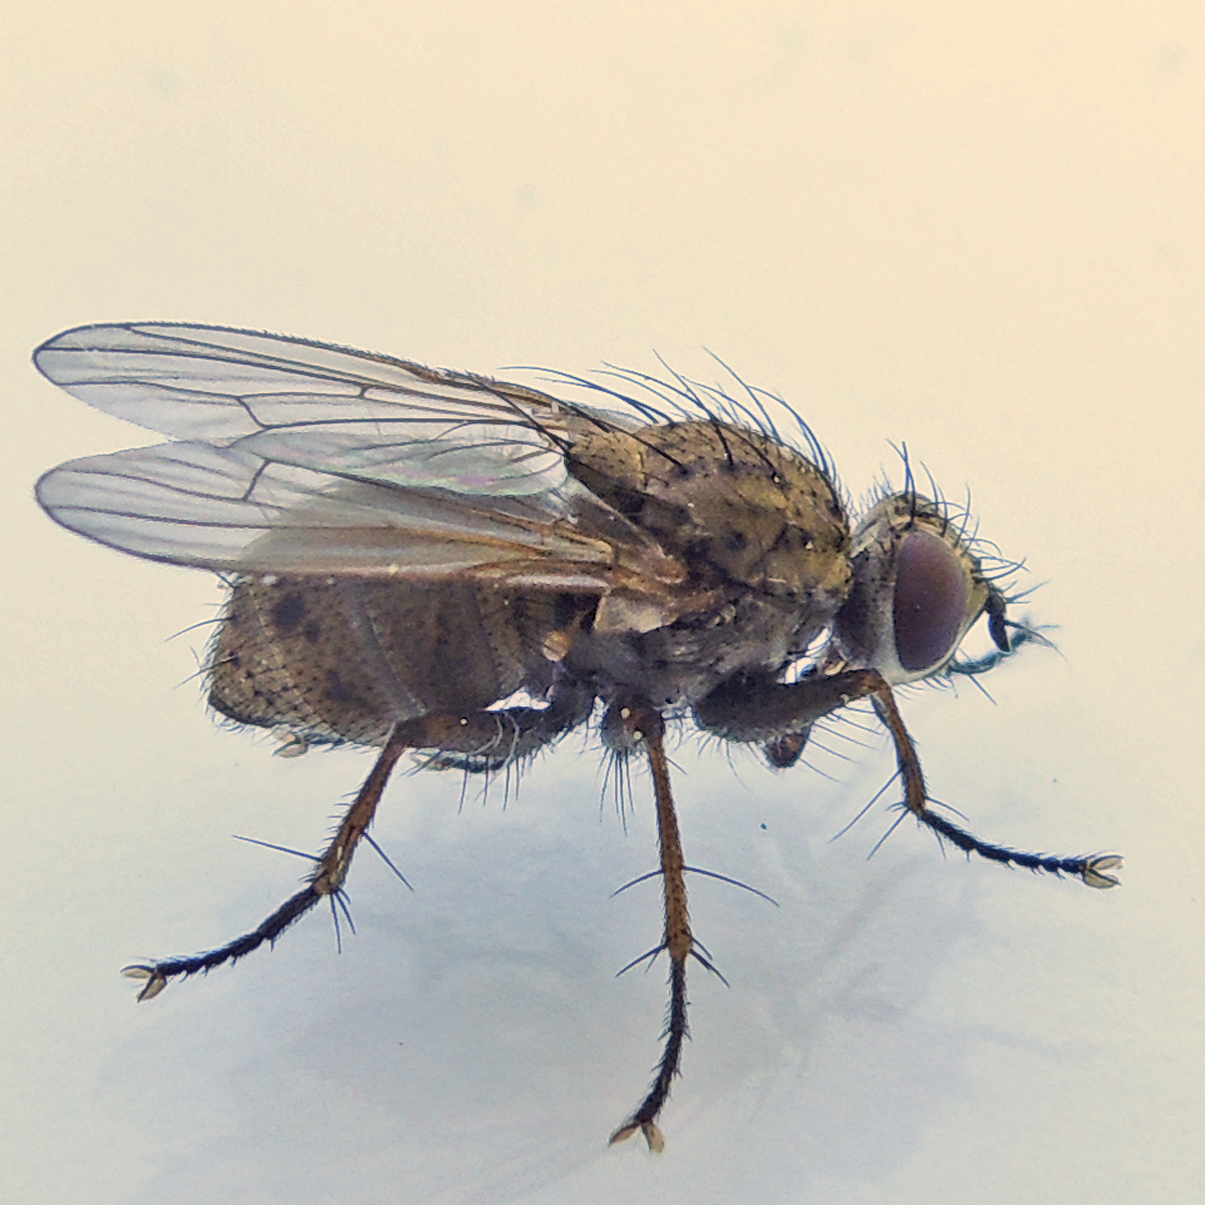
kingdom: Animalia
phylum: Arthropoda
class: Insecta
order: Diptera
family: Muscidae
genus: Coenosia
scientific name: Coenosia tigrina
